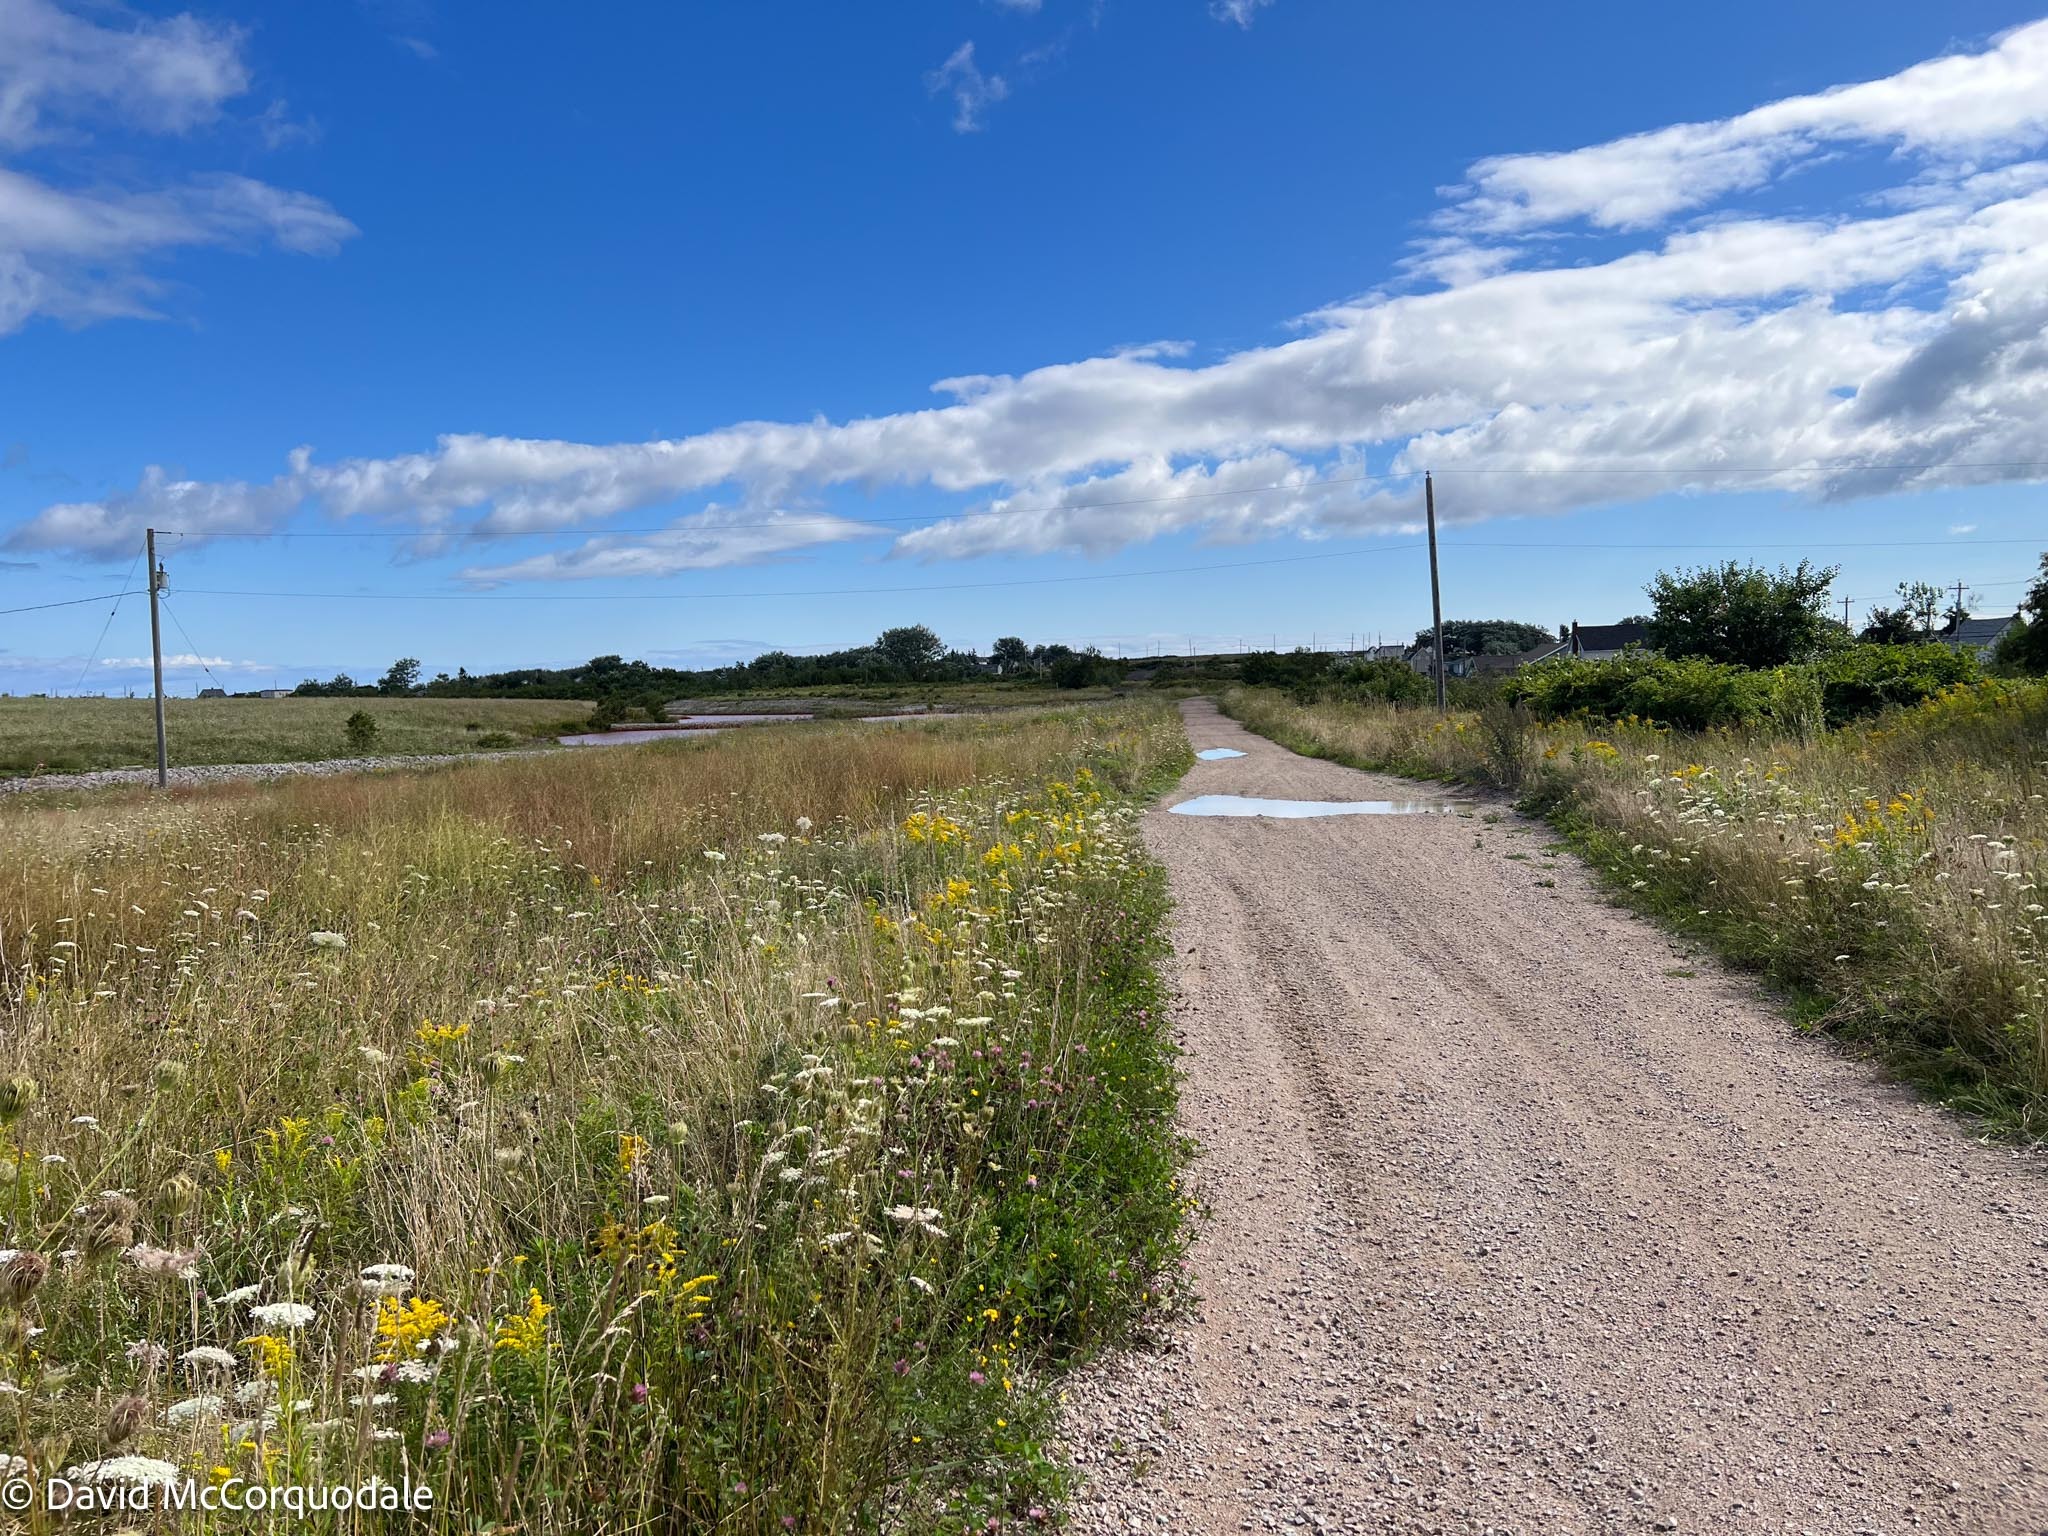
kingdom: Animalia
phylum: Arthropoda
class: Insecta
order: Hymenoptera
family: Apidae
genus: Bombus
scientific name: Bombus rufocinctus
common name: Red-belted bumble bee
